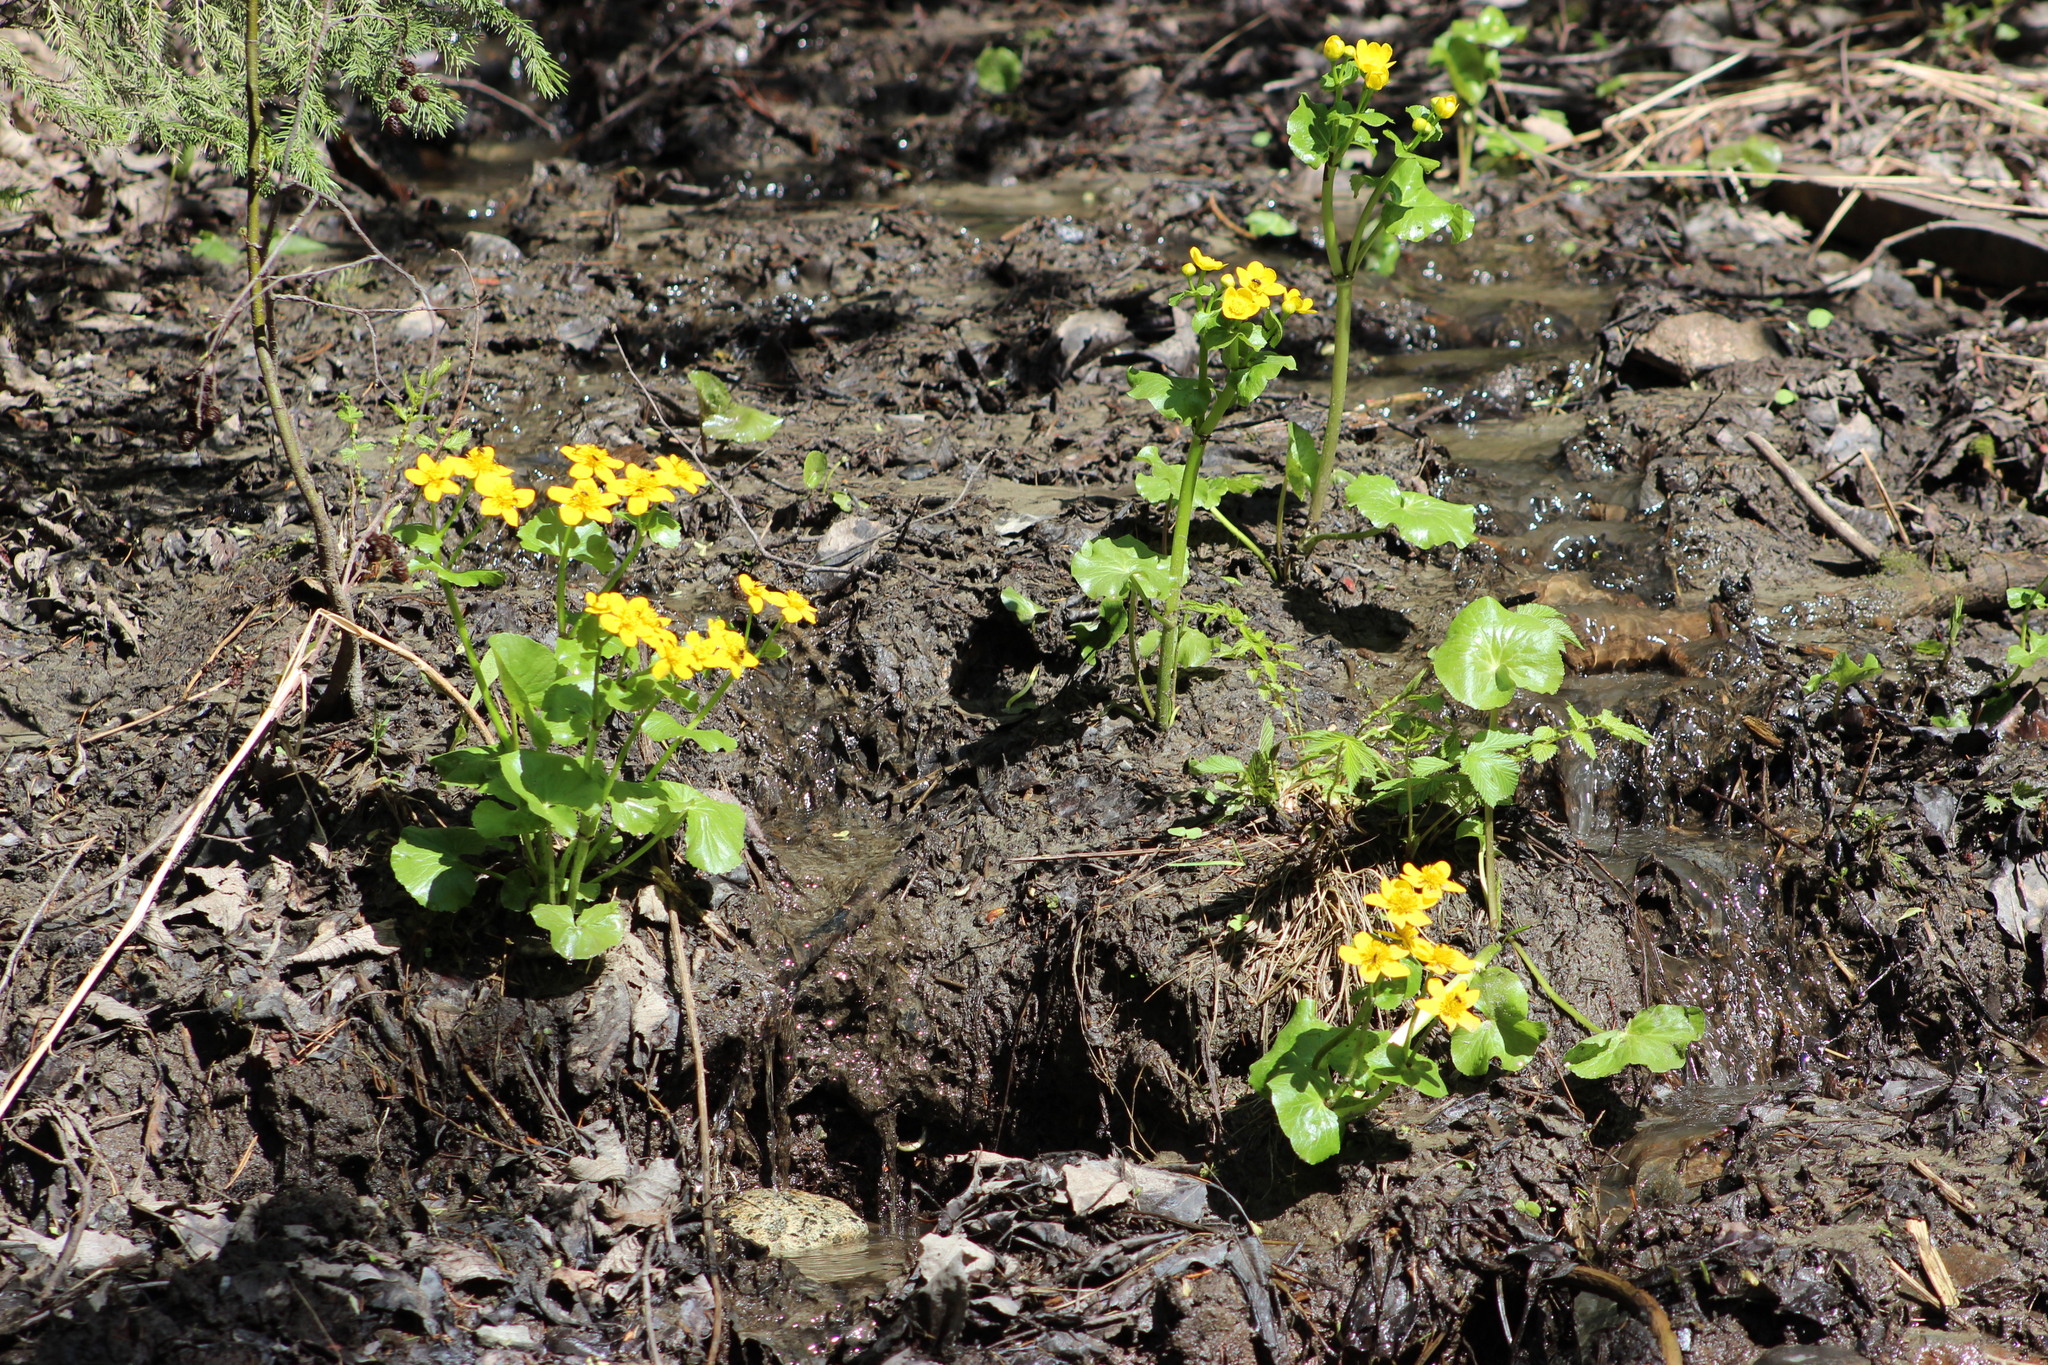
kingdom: Plantae
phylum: Tracheophyta
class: Magnoliopsida
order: Ranunculales
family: Ranunculaceae
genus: Caltha
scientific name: Caltha palustris
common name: Marsh marigold
